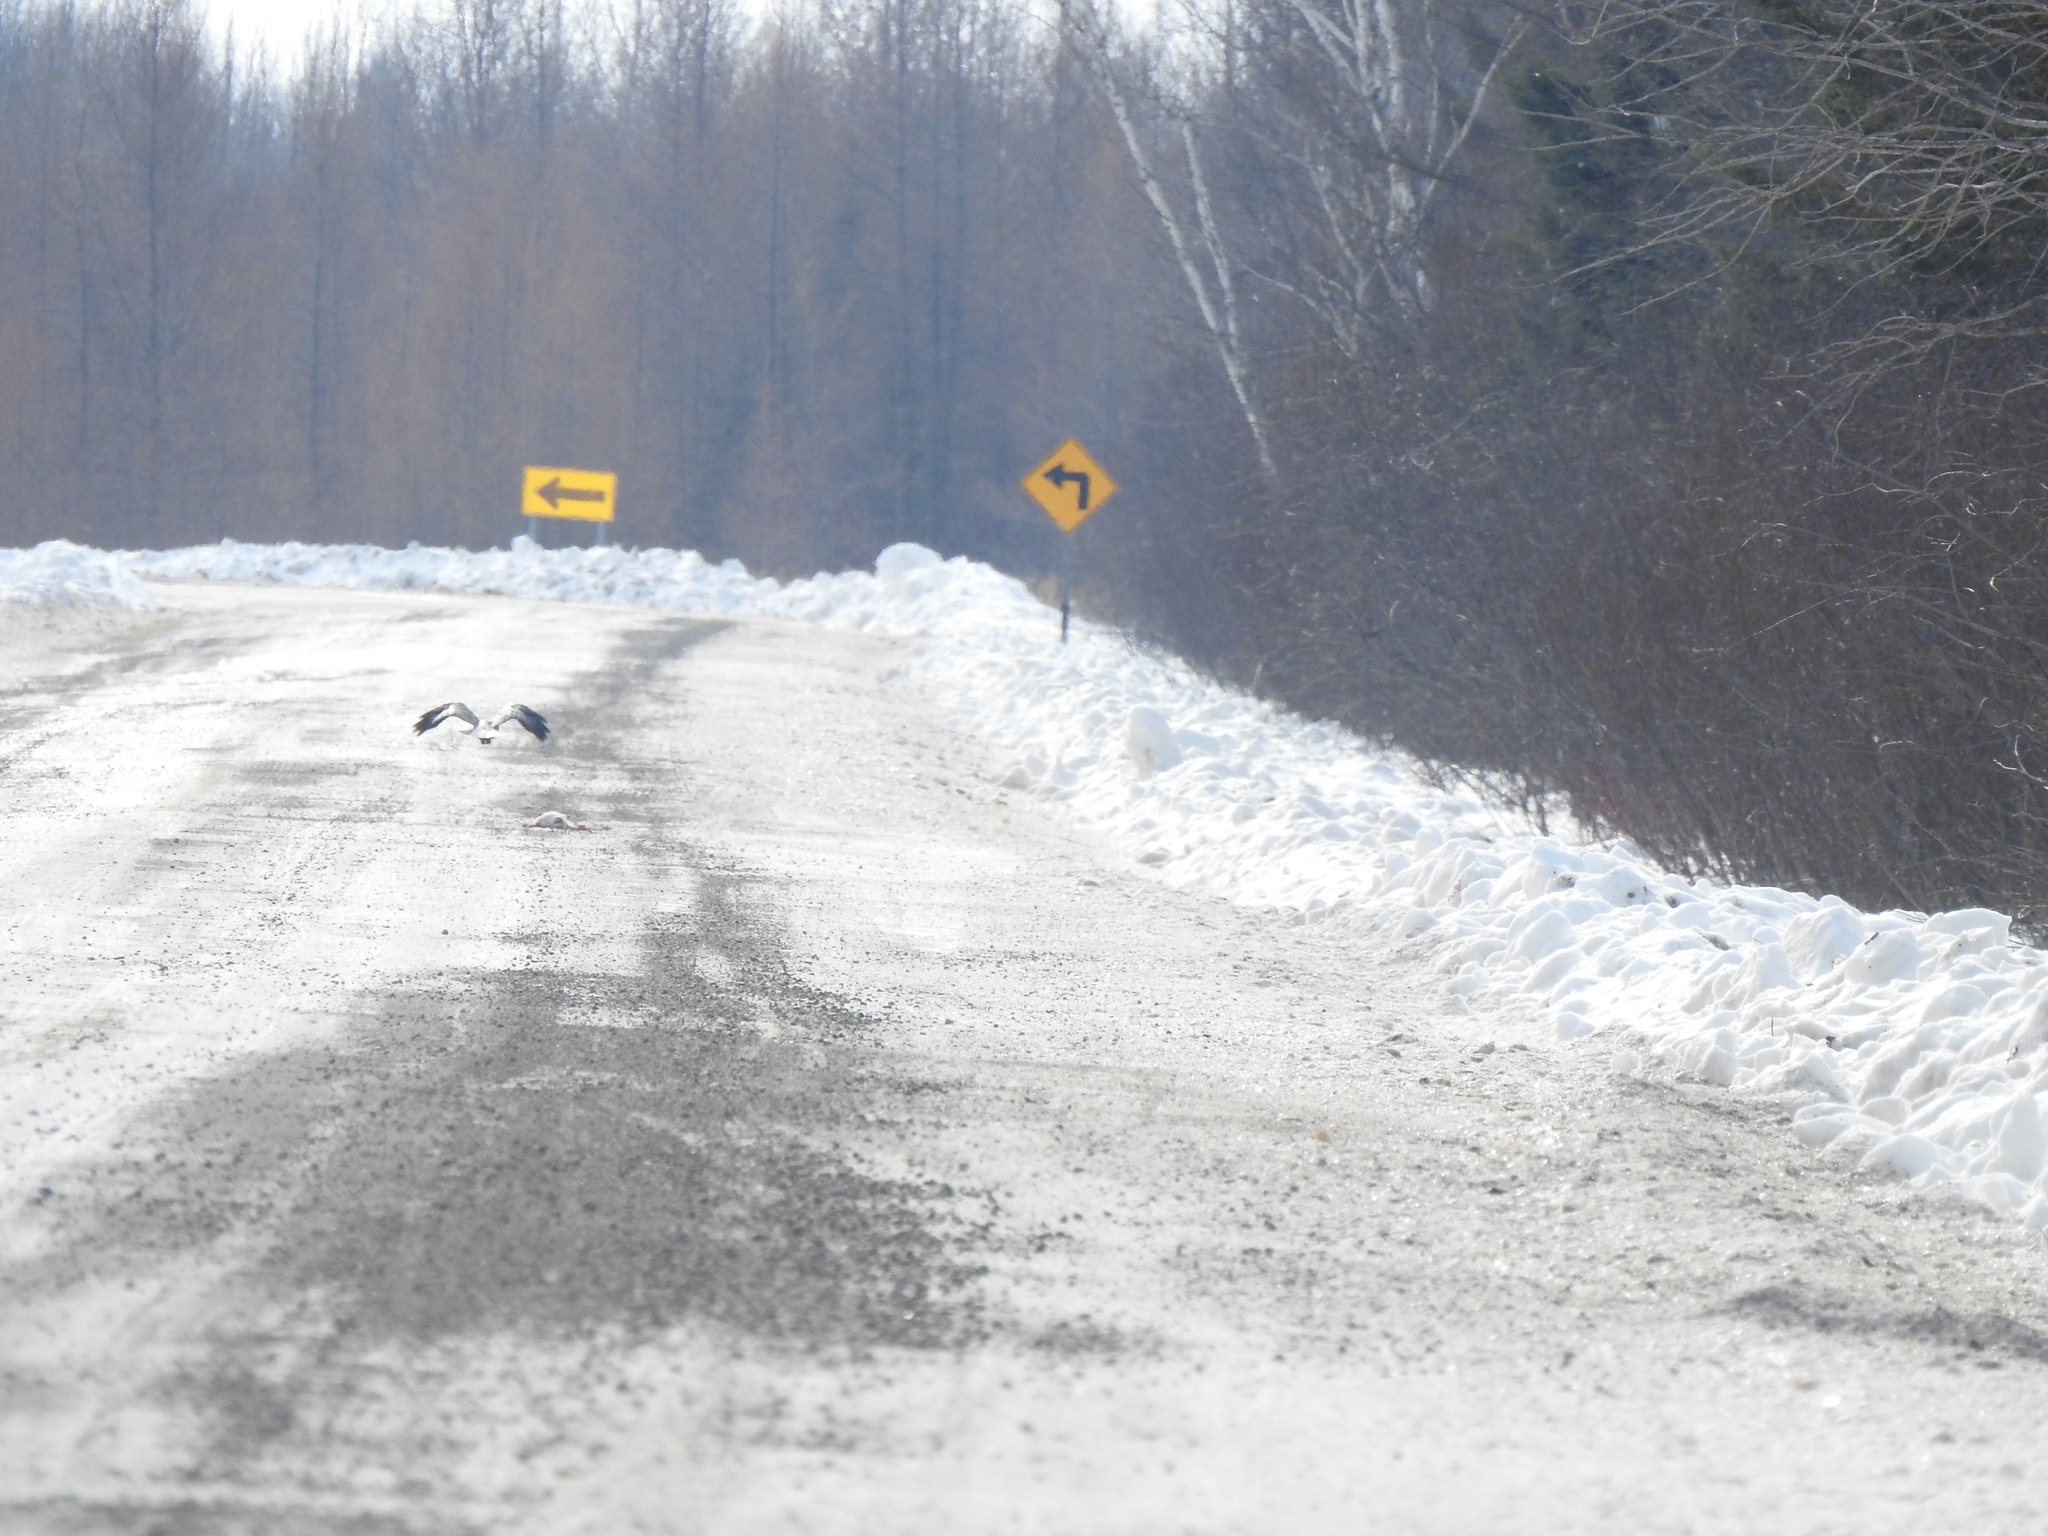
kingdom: Animalia
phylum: Chordata
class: Aves
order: Accipitriformes
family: Accipitridae
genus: Accipiter
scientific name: Accipiter gentilis
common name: Northern goshawk
